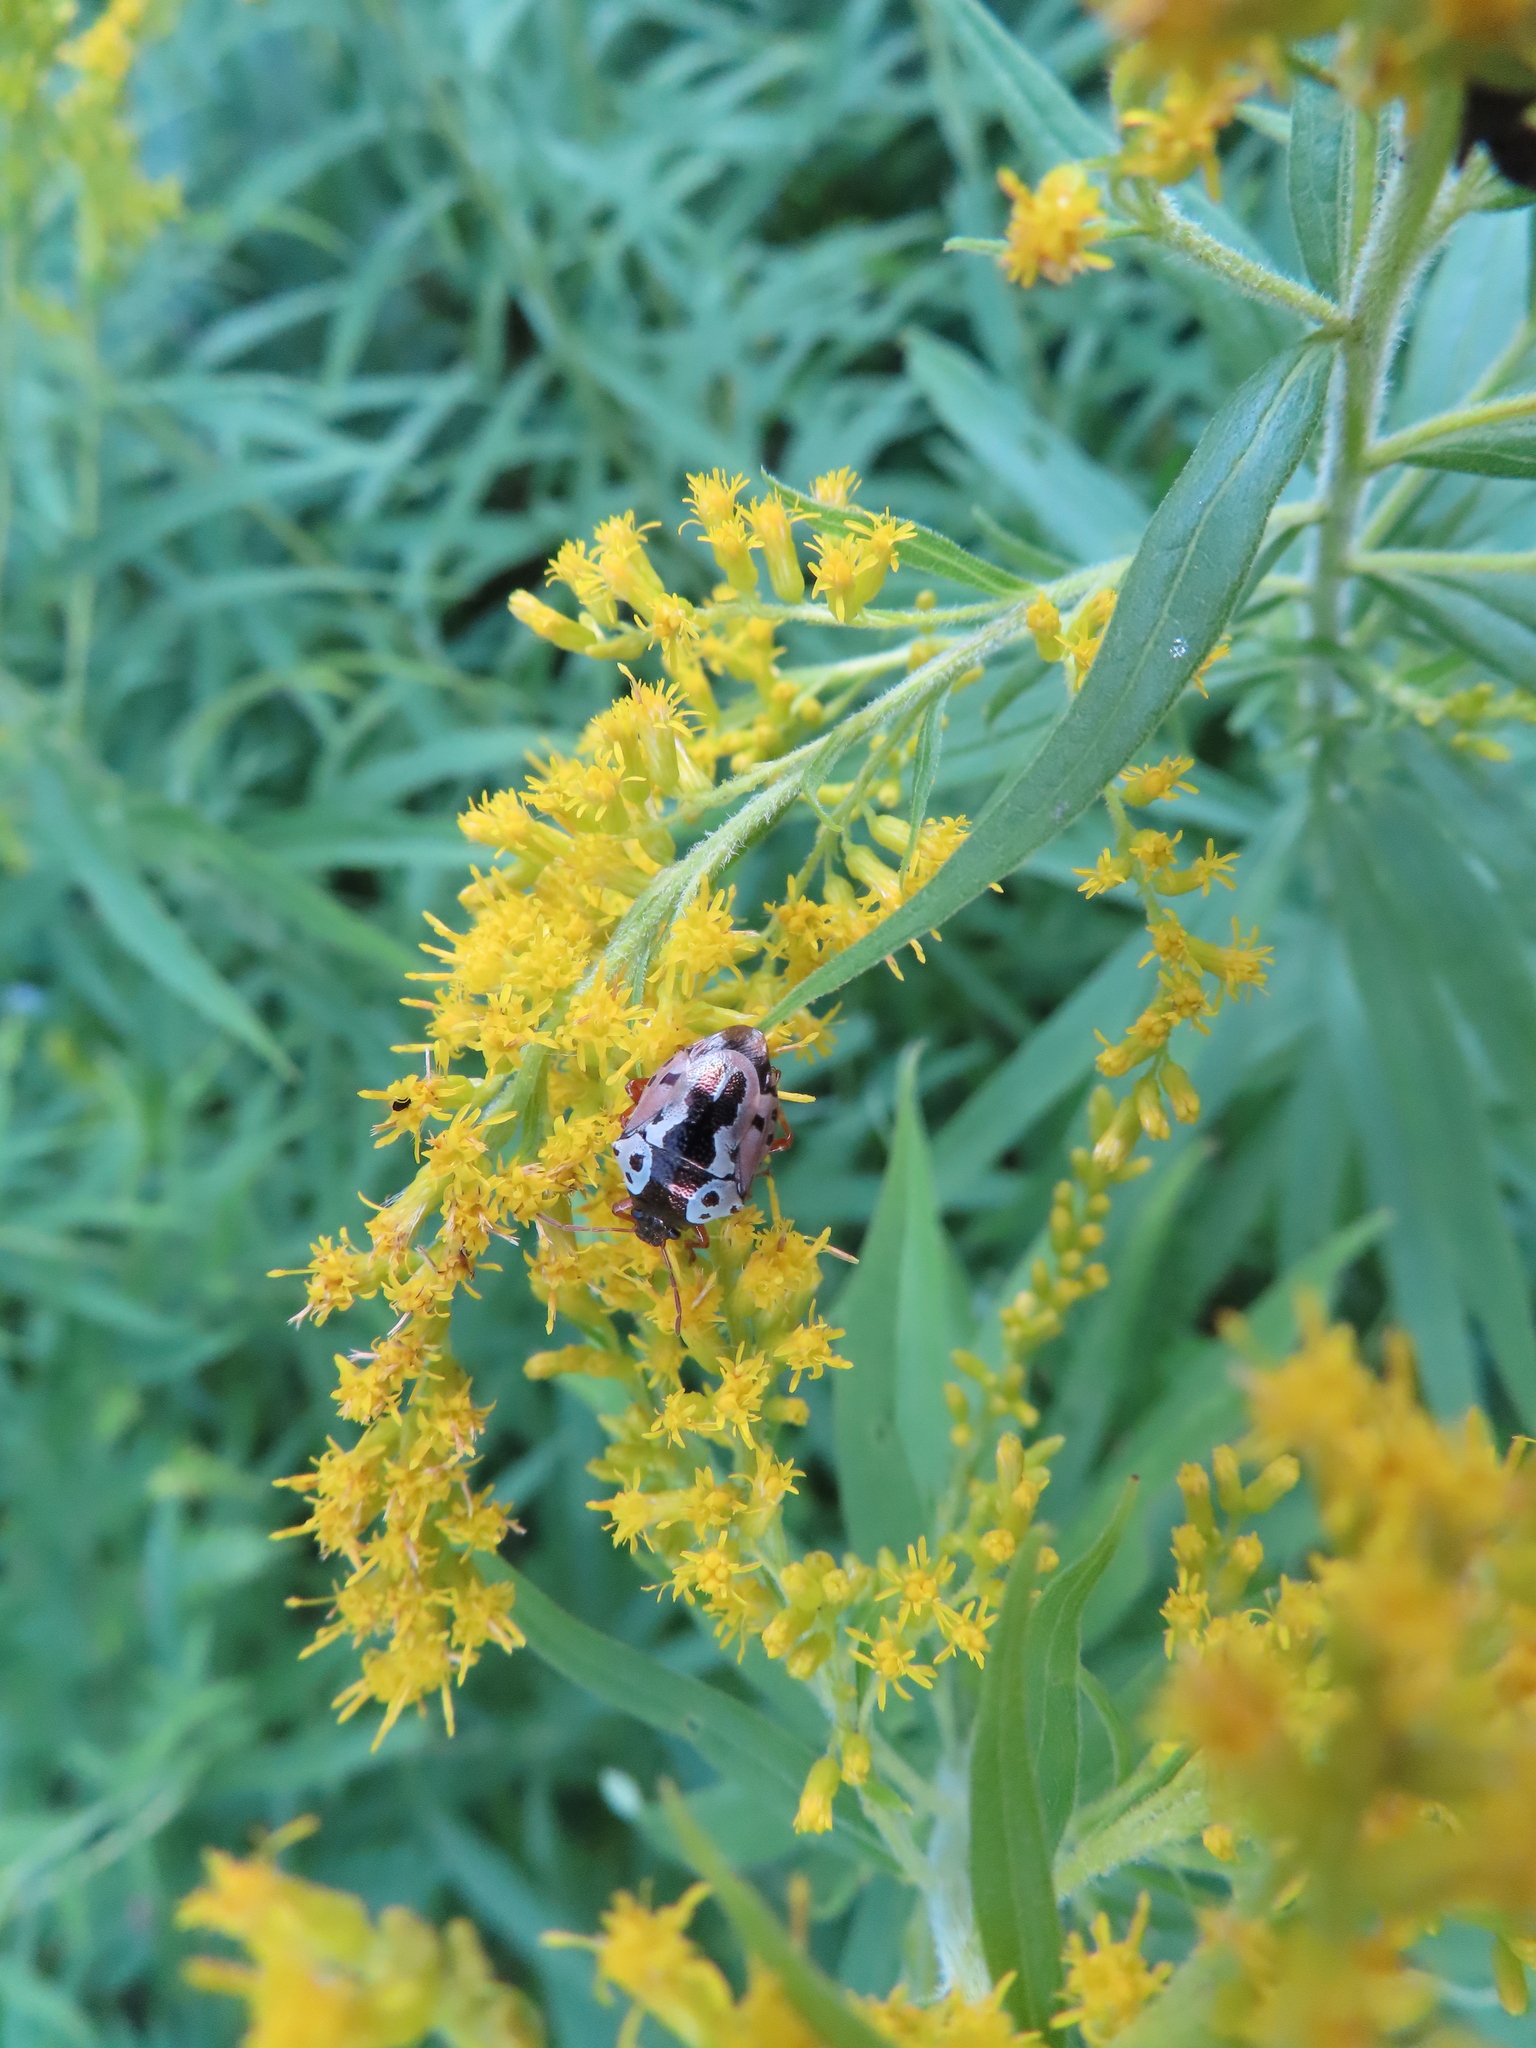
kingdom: Animalia
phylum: Arthropoda
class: Insecta
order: Hemiptera
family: Pentatomidae
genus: Stiretrus
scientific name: Stiretrus anchorago
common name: Anchor stink bug
